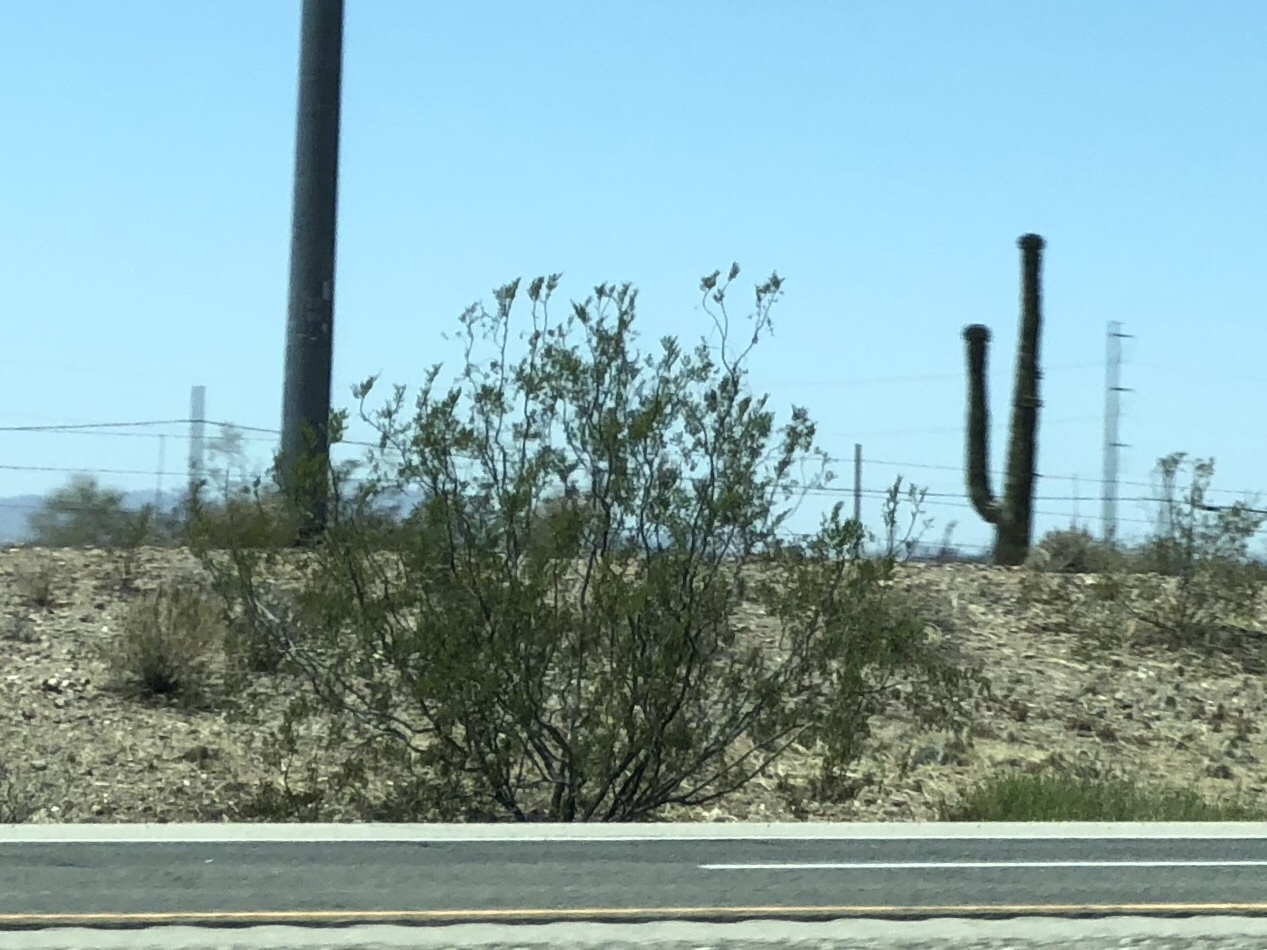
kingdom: Plantae
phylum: Tracheophyta
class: Magnoliopsida
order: Zygophyllales
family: Zygophyllaceae
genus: Larrea
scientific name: Larrea tridentata
